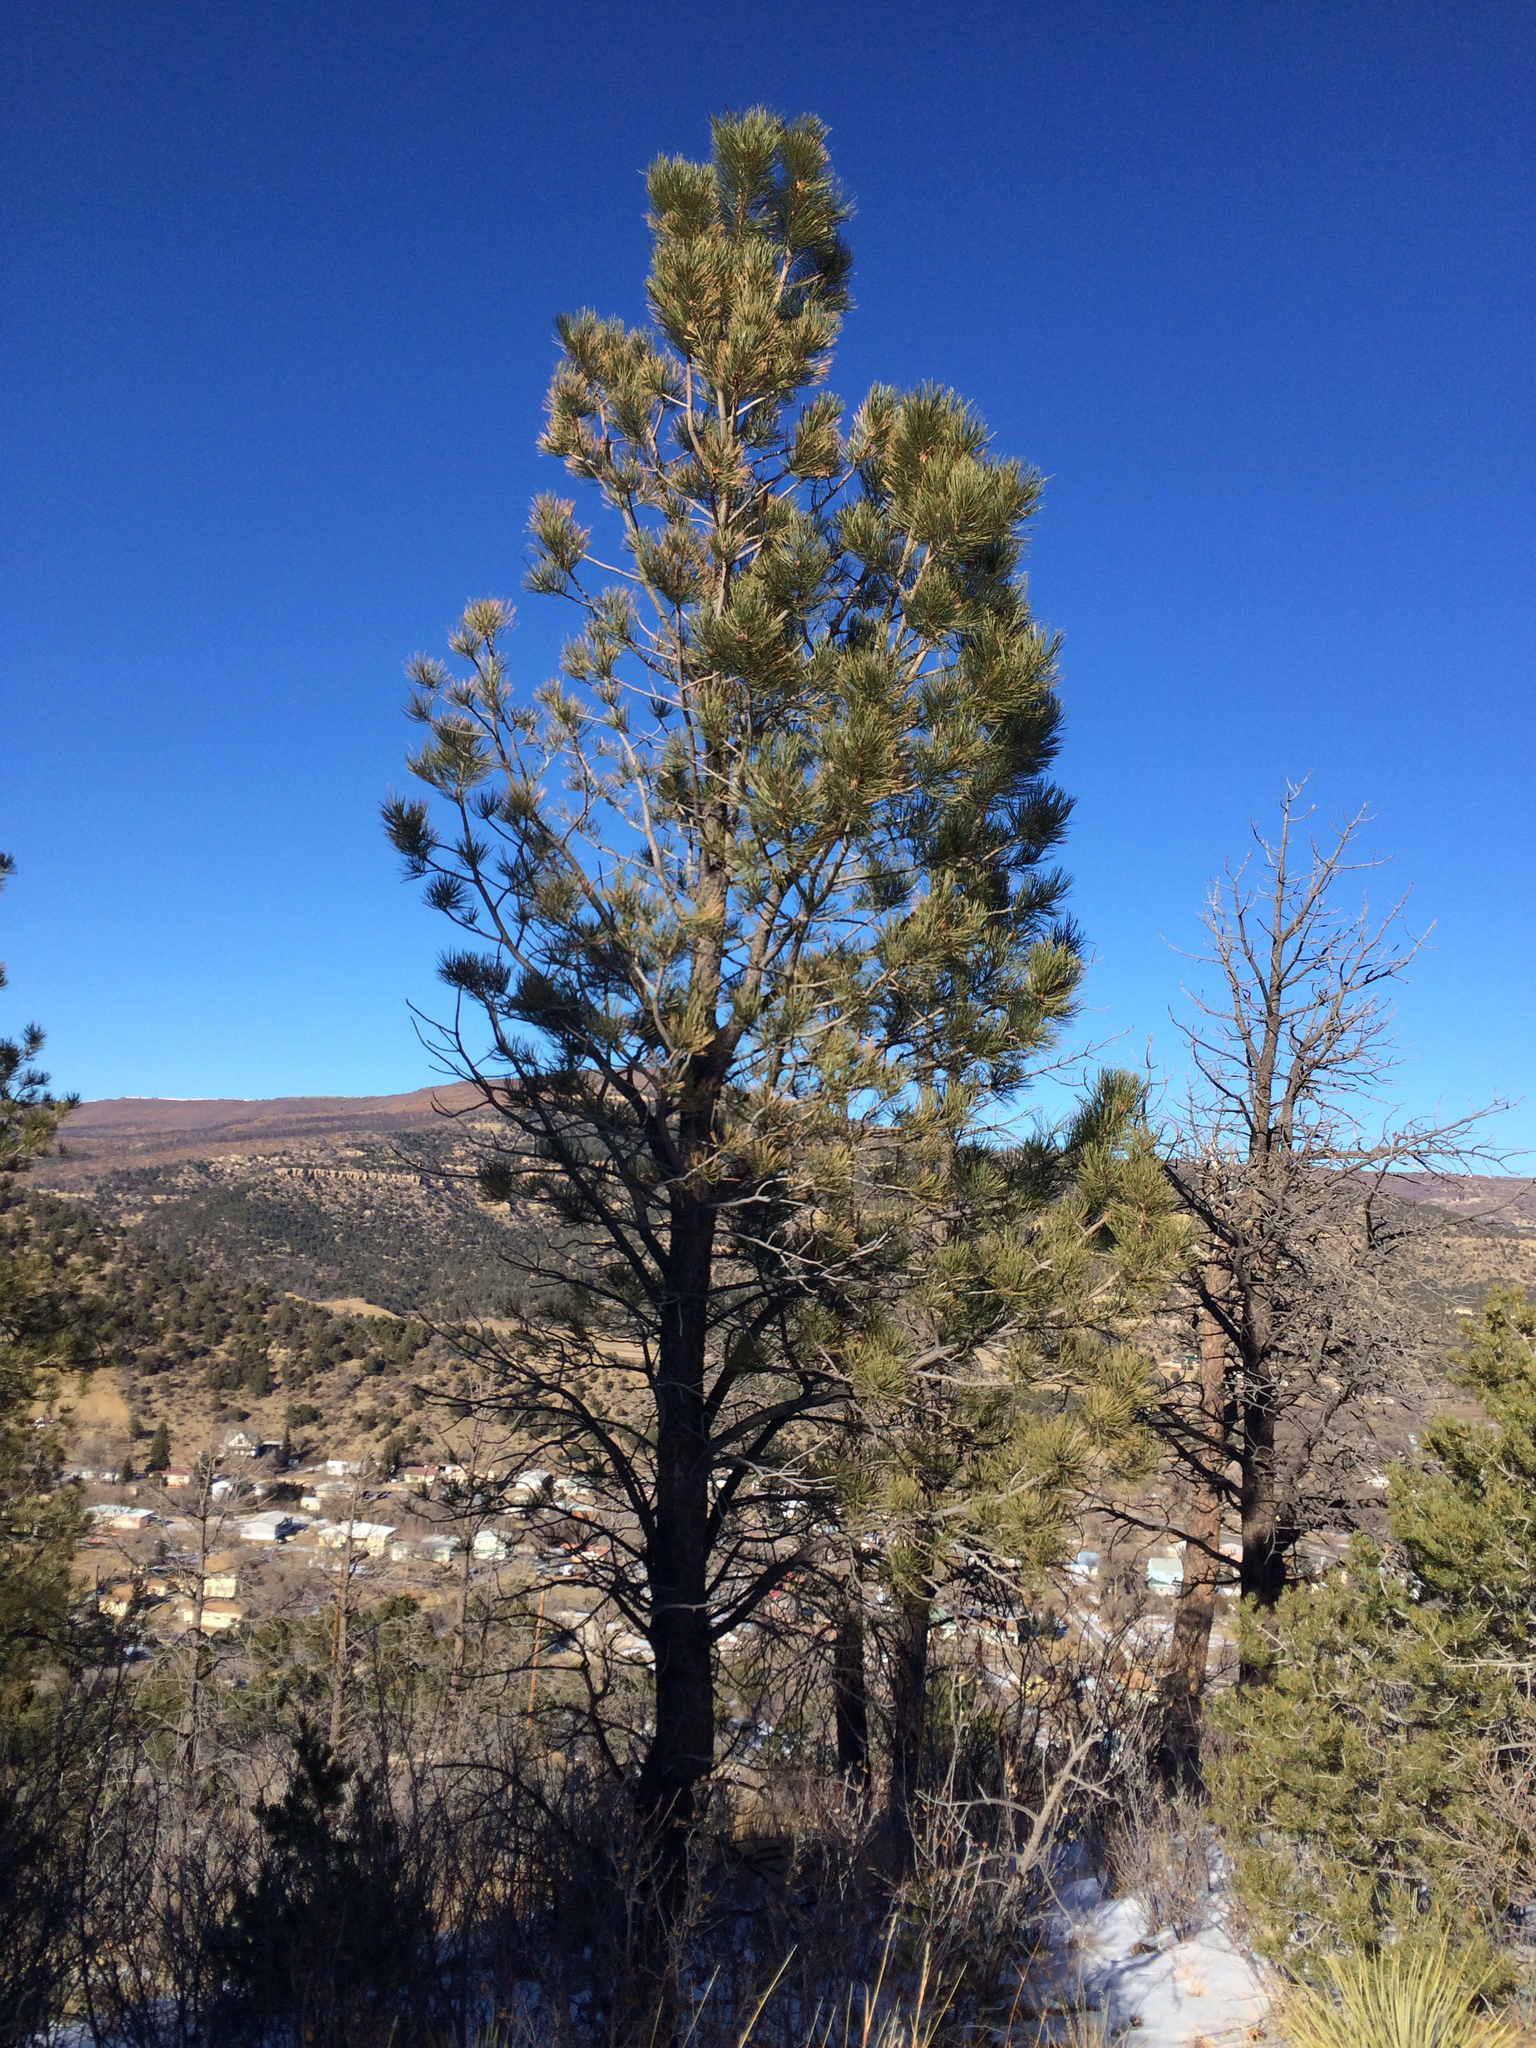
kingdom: Plantae
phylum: Tracheophyta
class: Pinopsida
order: Pinales
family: Pinaceae
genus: Pinus
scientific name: Pinus ponderosa
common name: Western yellow-pine
